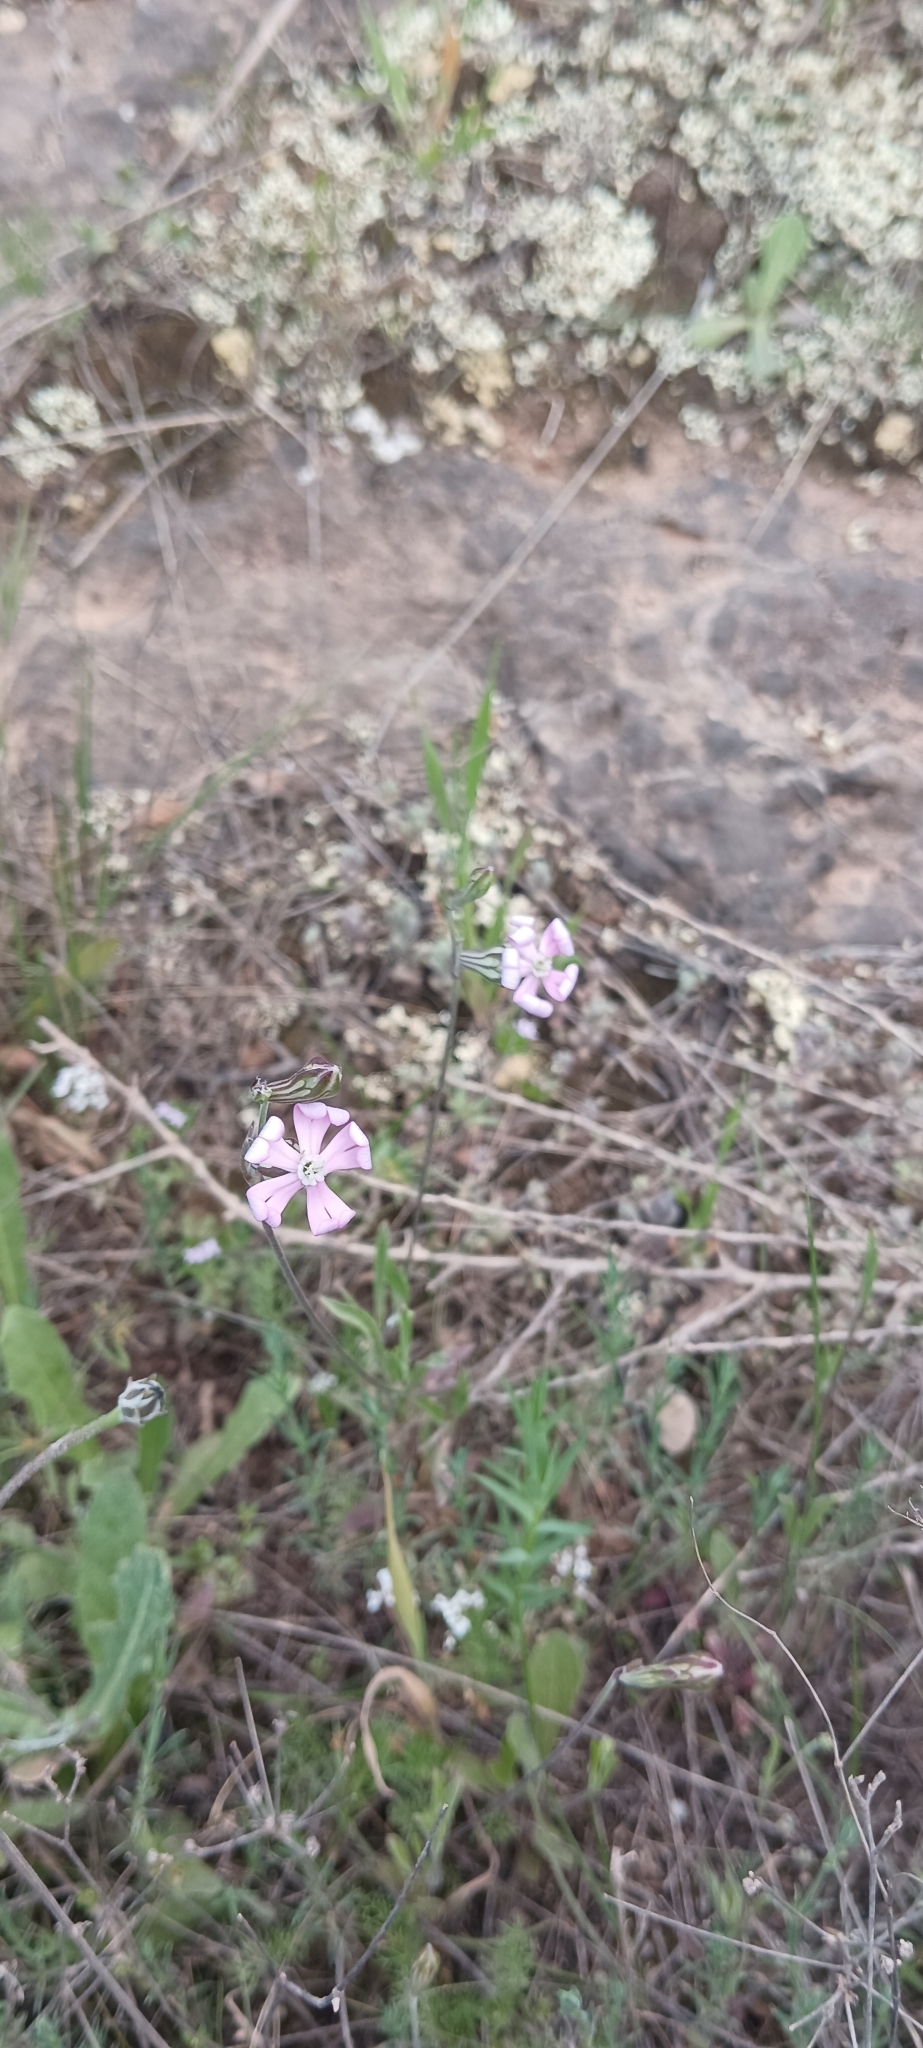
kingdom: Plantae
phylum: Tracheophyta
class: Magnoliopsida
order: Caryophyllales
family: Caryophyllaceae
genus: Silene
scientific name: Silene colorata
